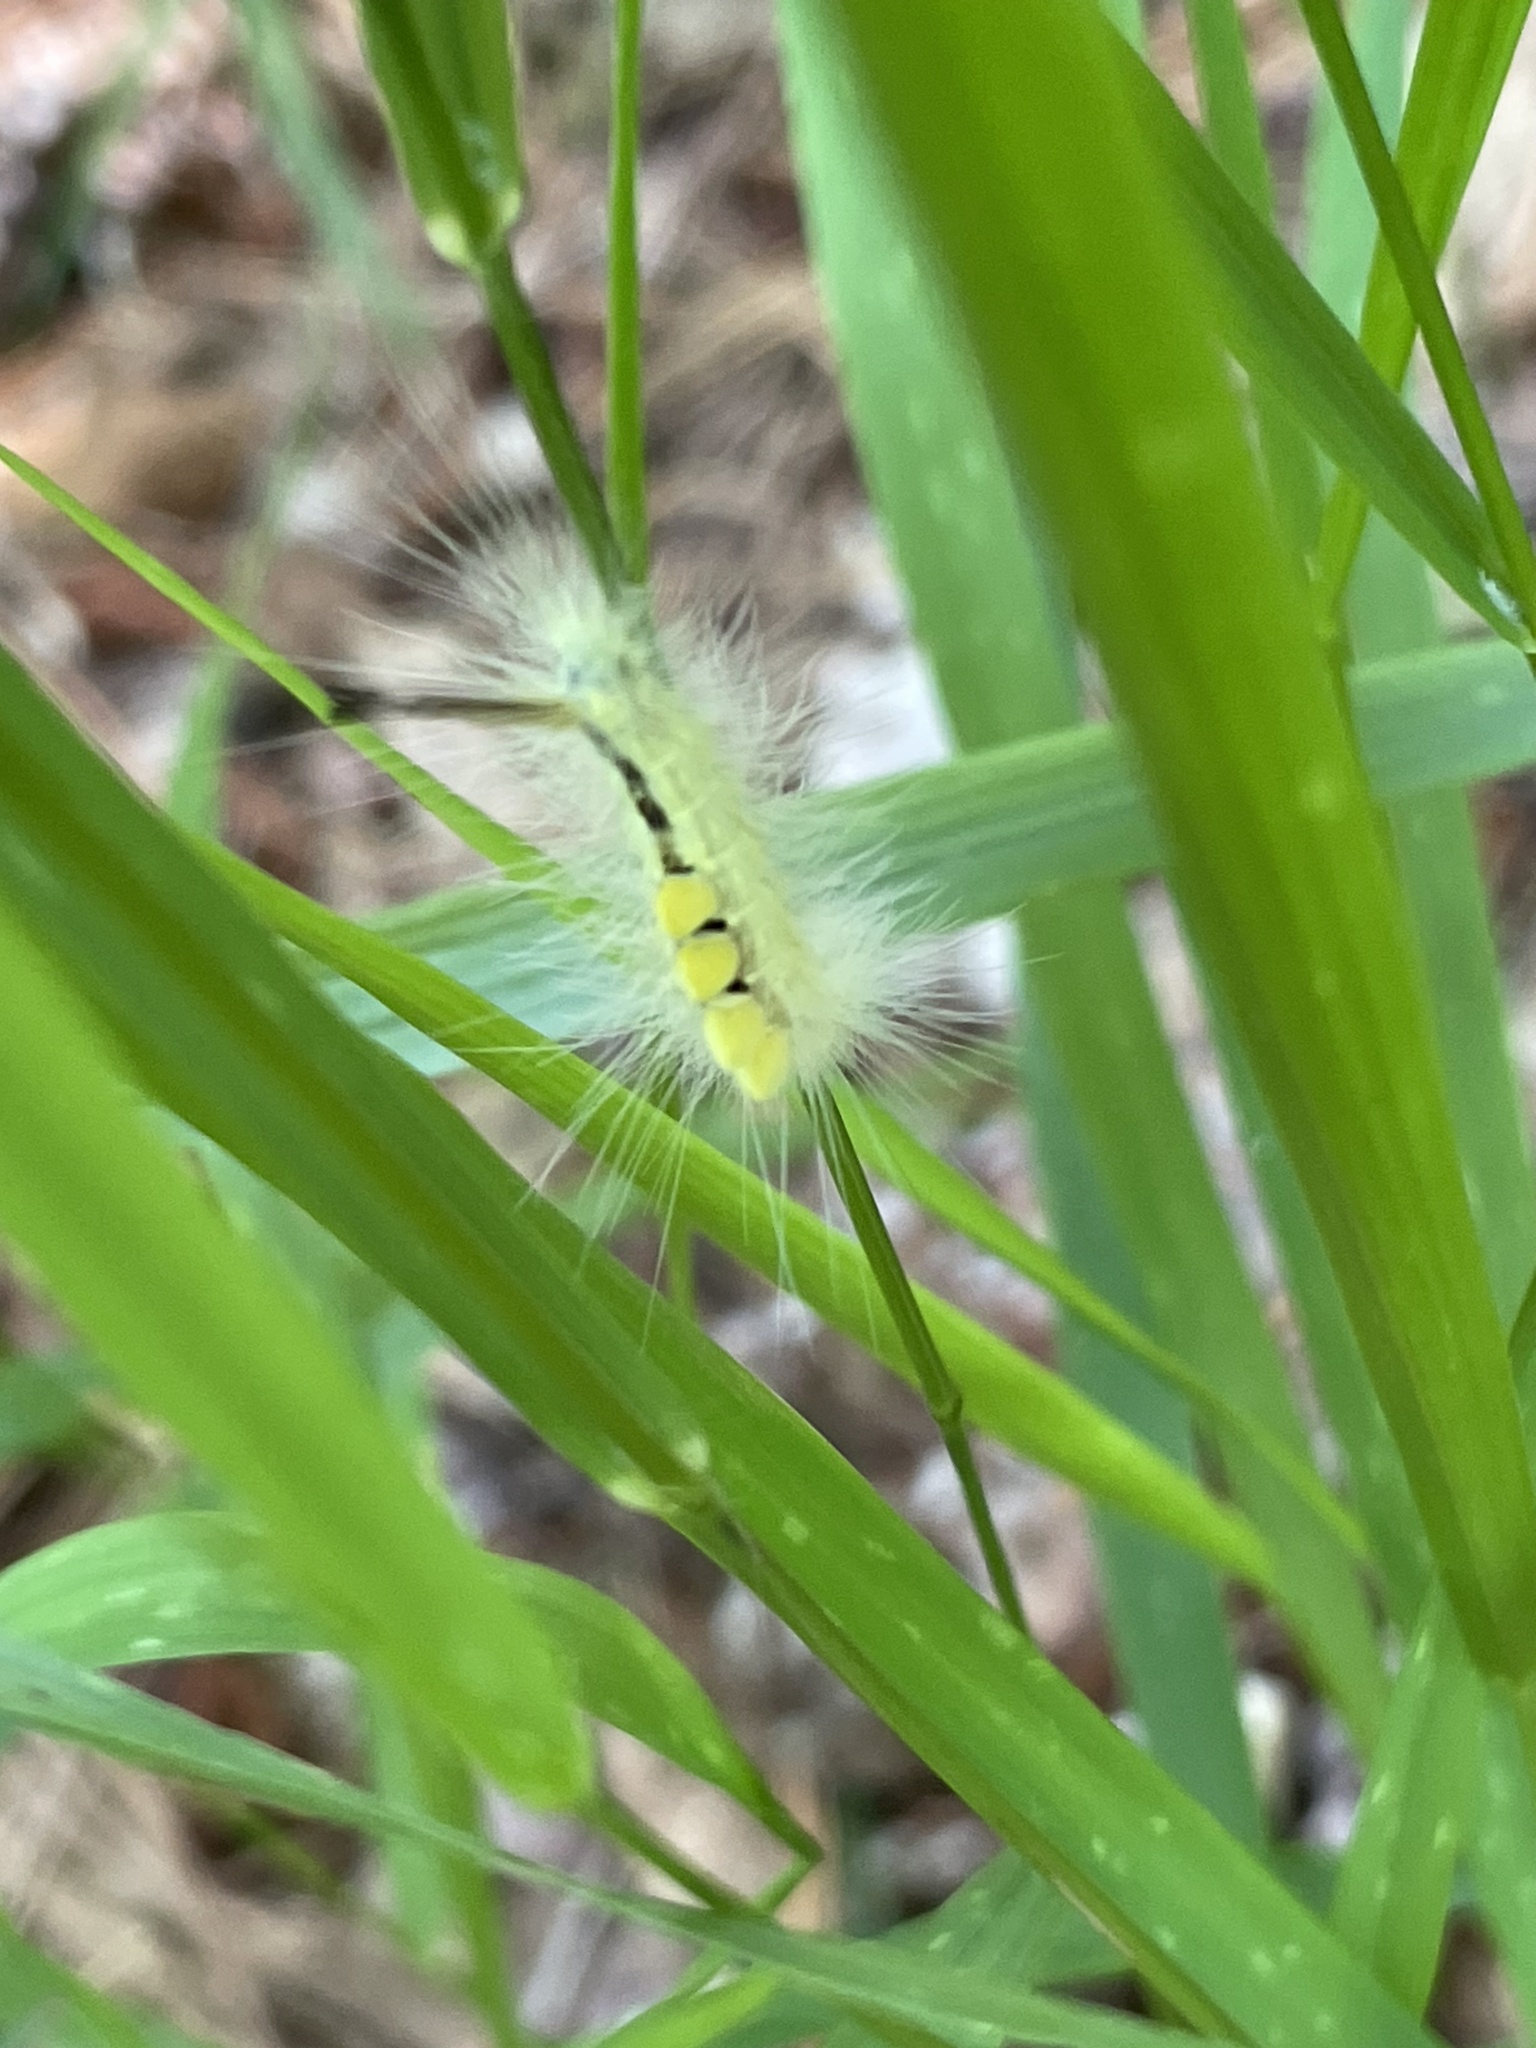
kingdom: Animalia
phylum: Arthropoda
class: Insecta
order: Lepidoptera
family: Erebidae
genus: Orgyia
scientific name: Orgyia definita
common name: Definite tussock moth
